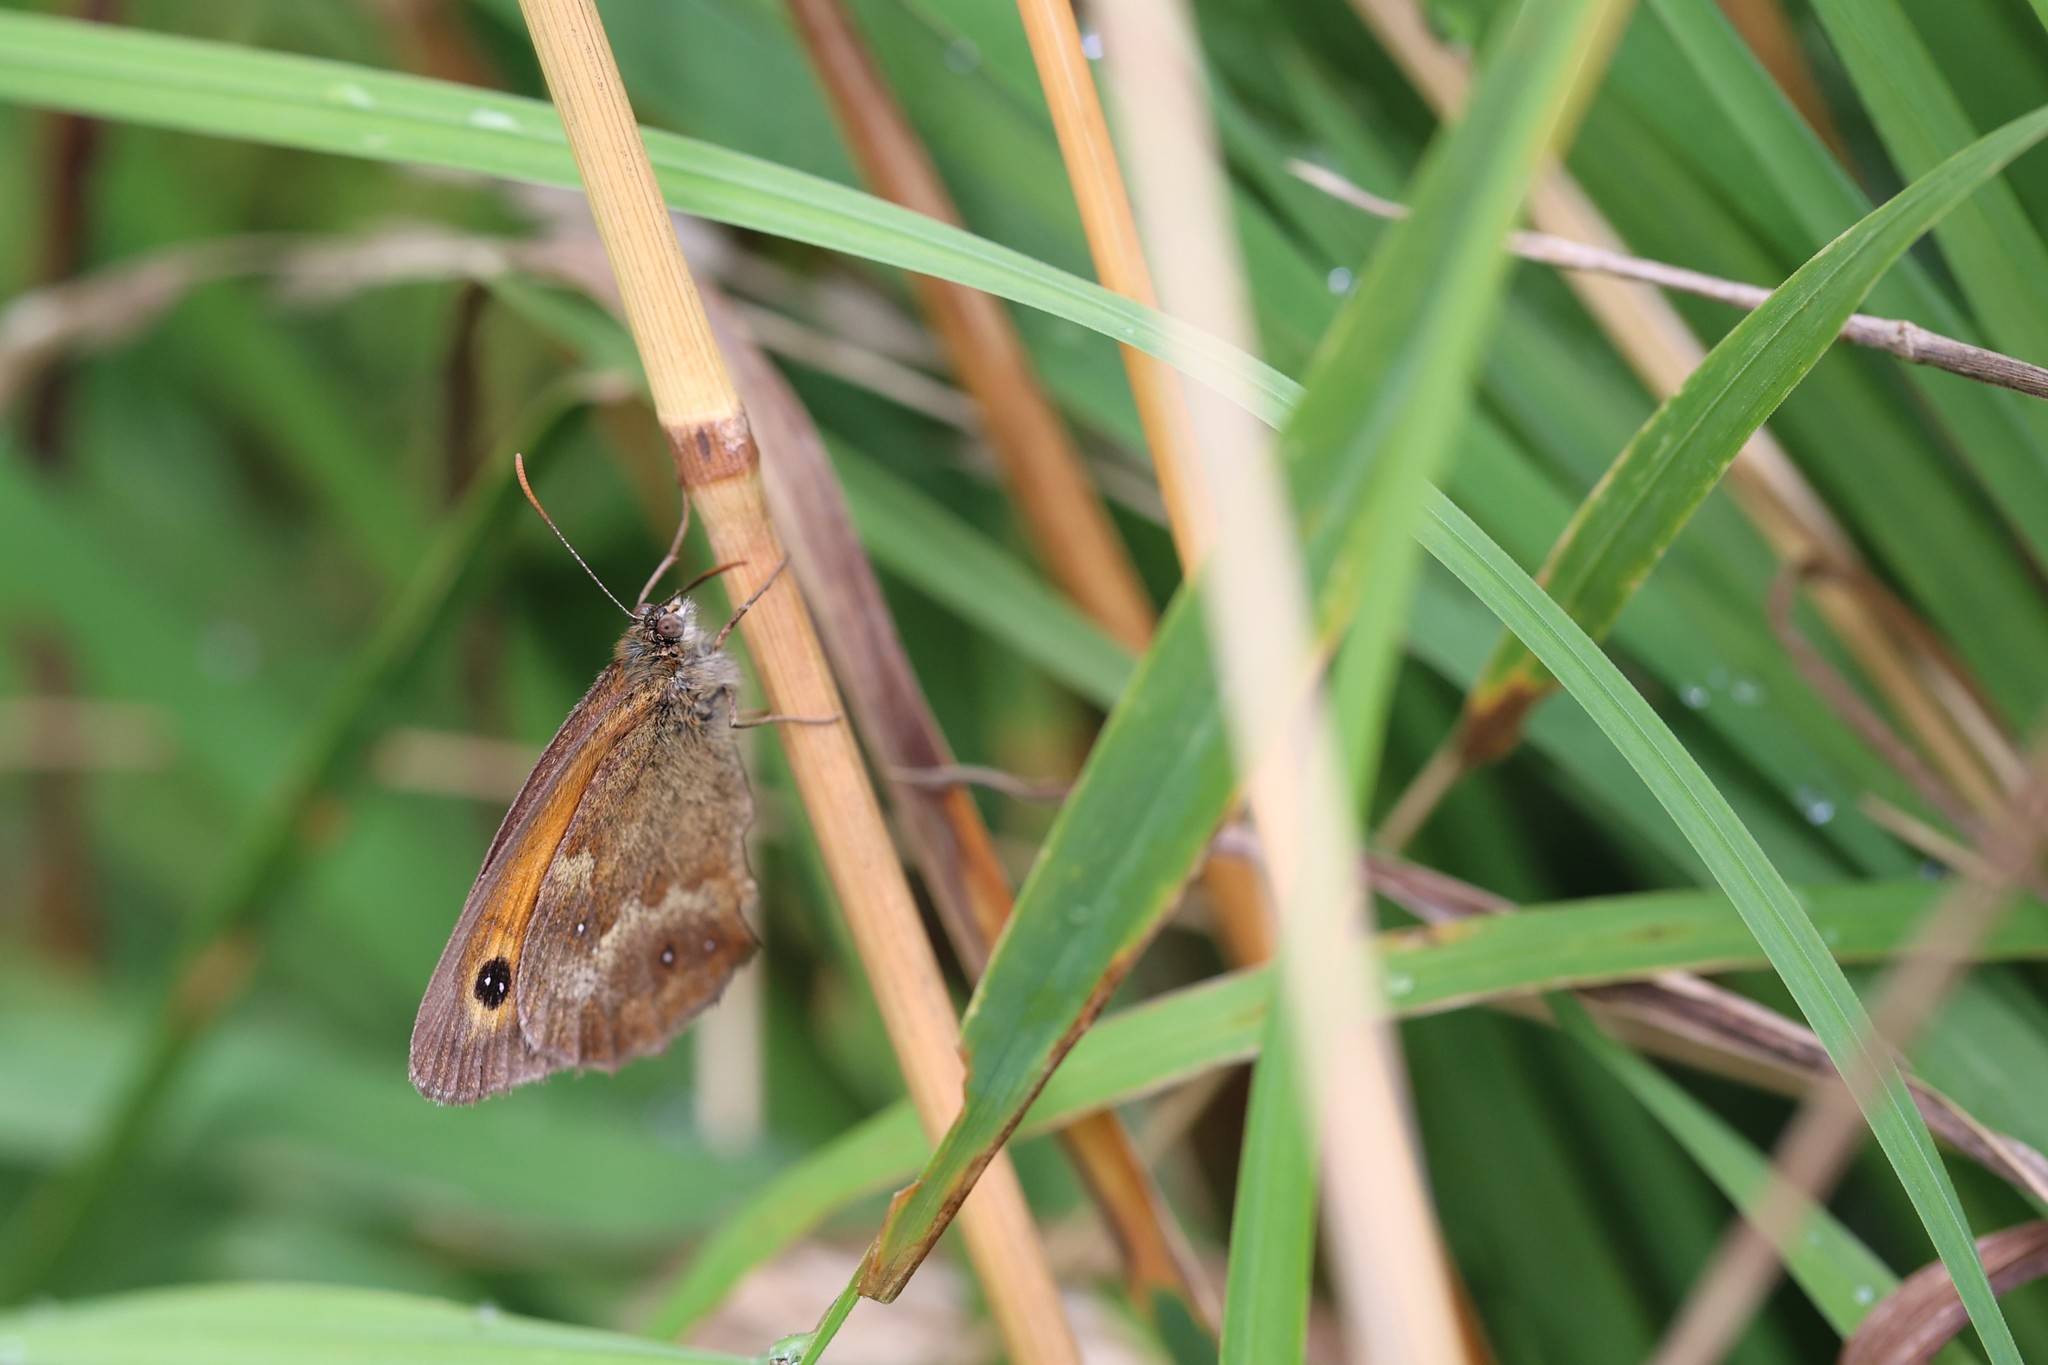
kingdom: Animalia
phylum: Arthropoda
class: Insecta
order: Lepidoptera
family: Nymphalidae
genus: Pyronia
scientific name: Pyronia tithonus
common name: Gatekeeper
